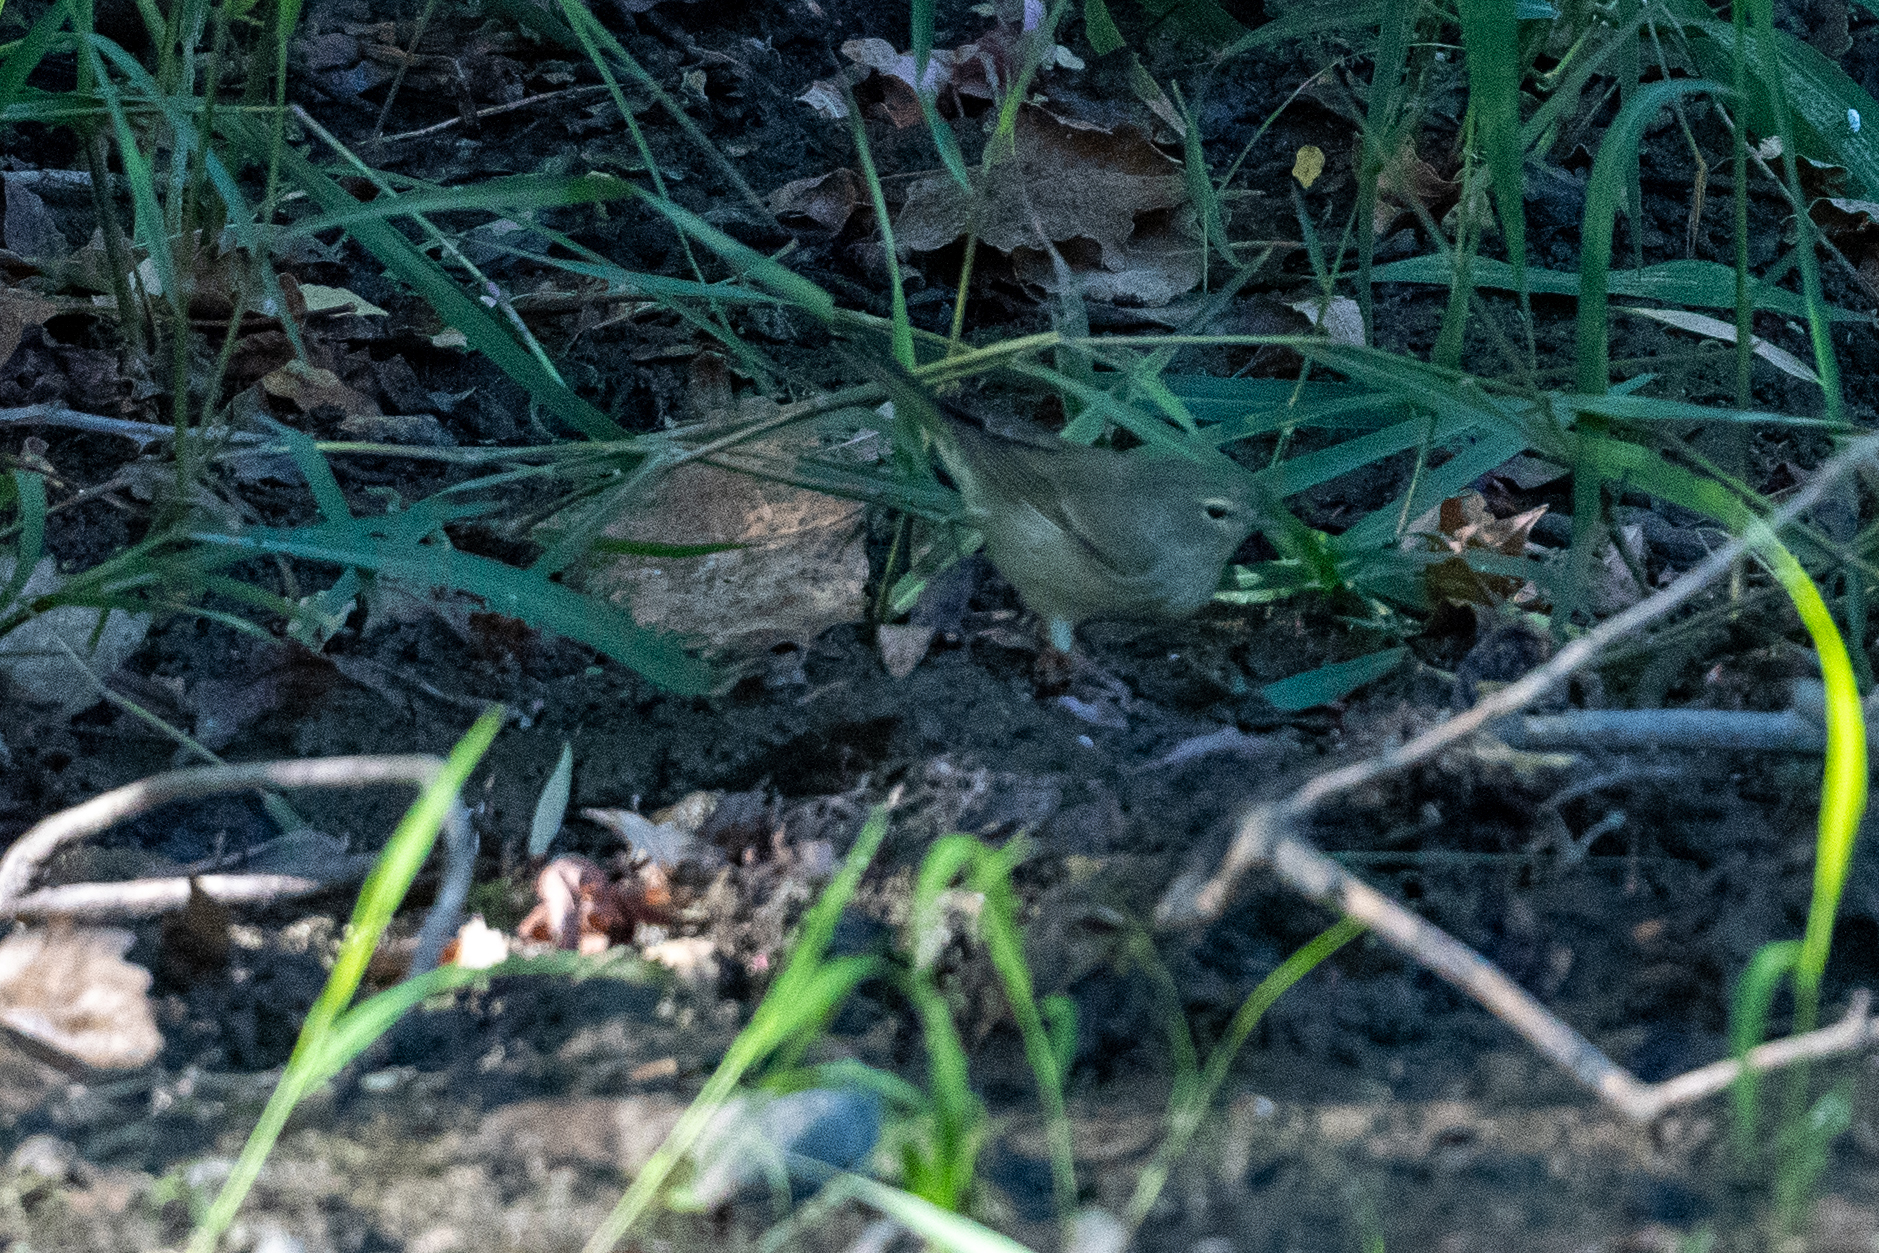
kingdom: Animalia
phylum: Chordata
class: Aves
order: Passeriformes
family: Parulidae
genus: Leiothlypis
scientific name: Leiothlypis celata
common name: Orange-crowned warbler
